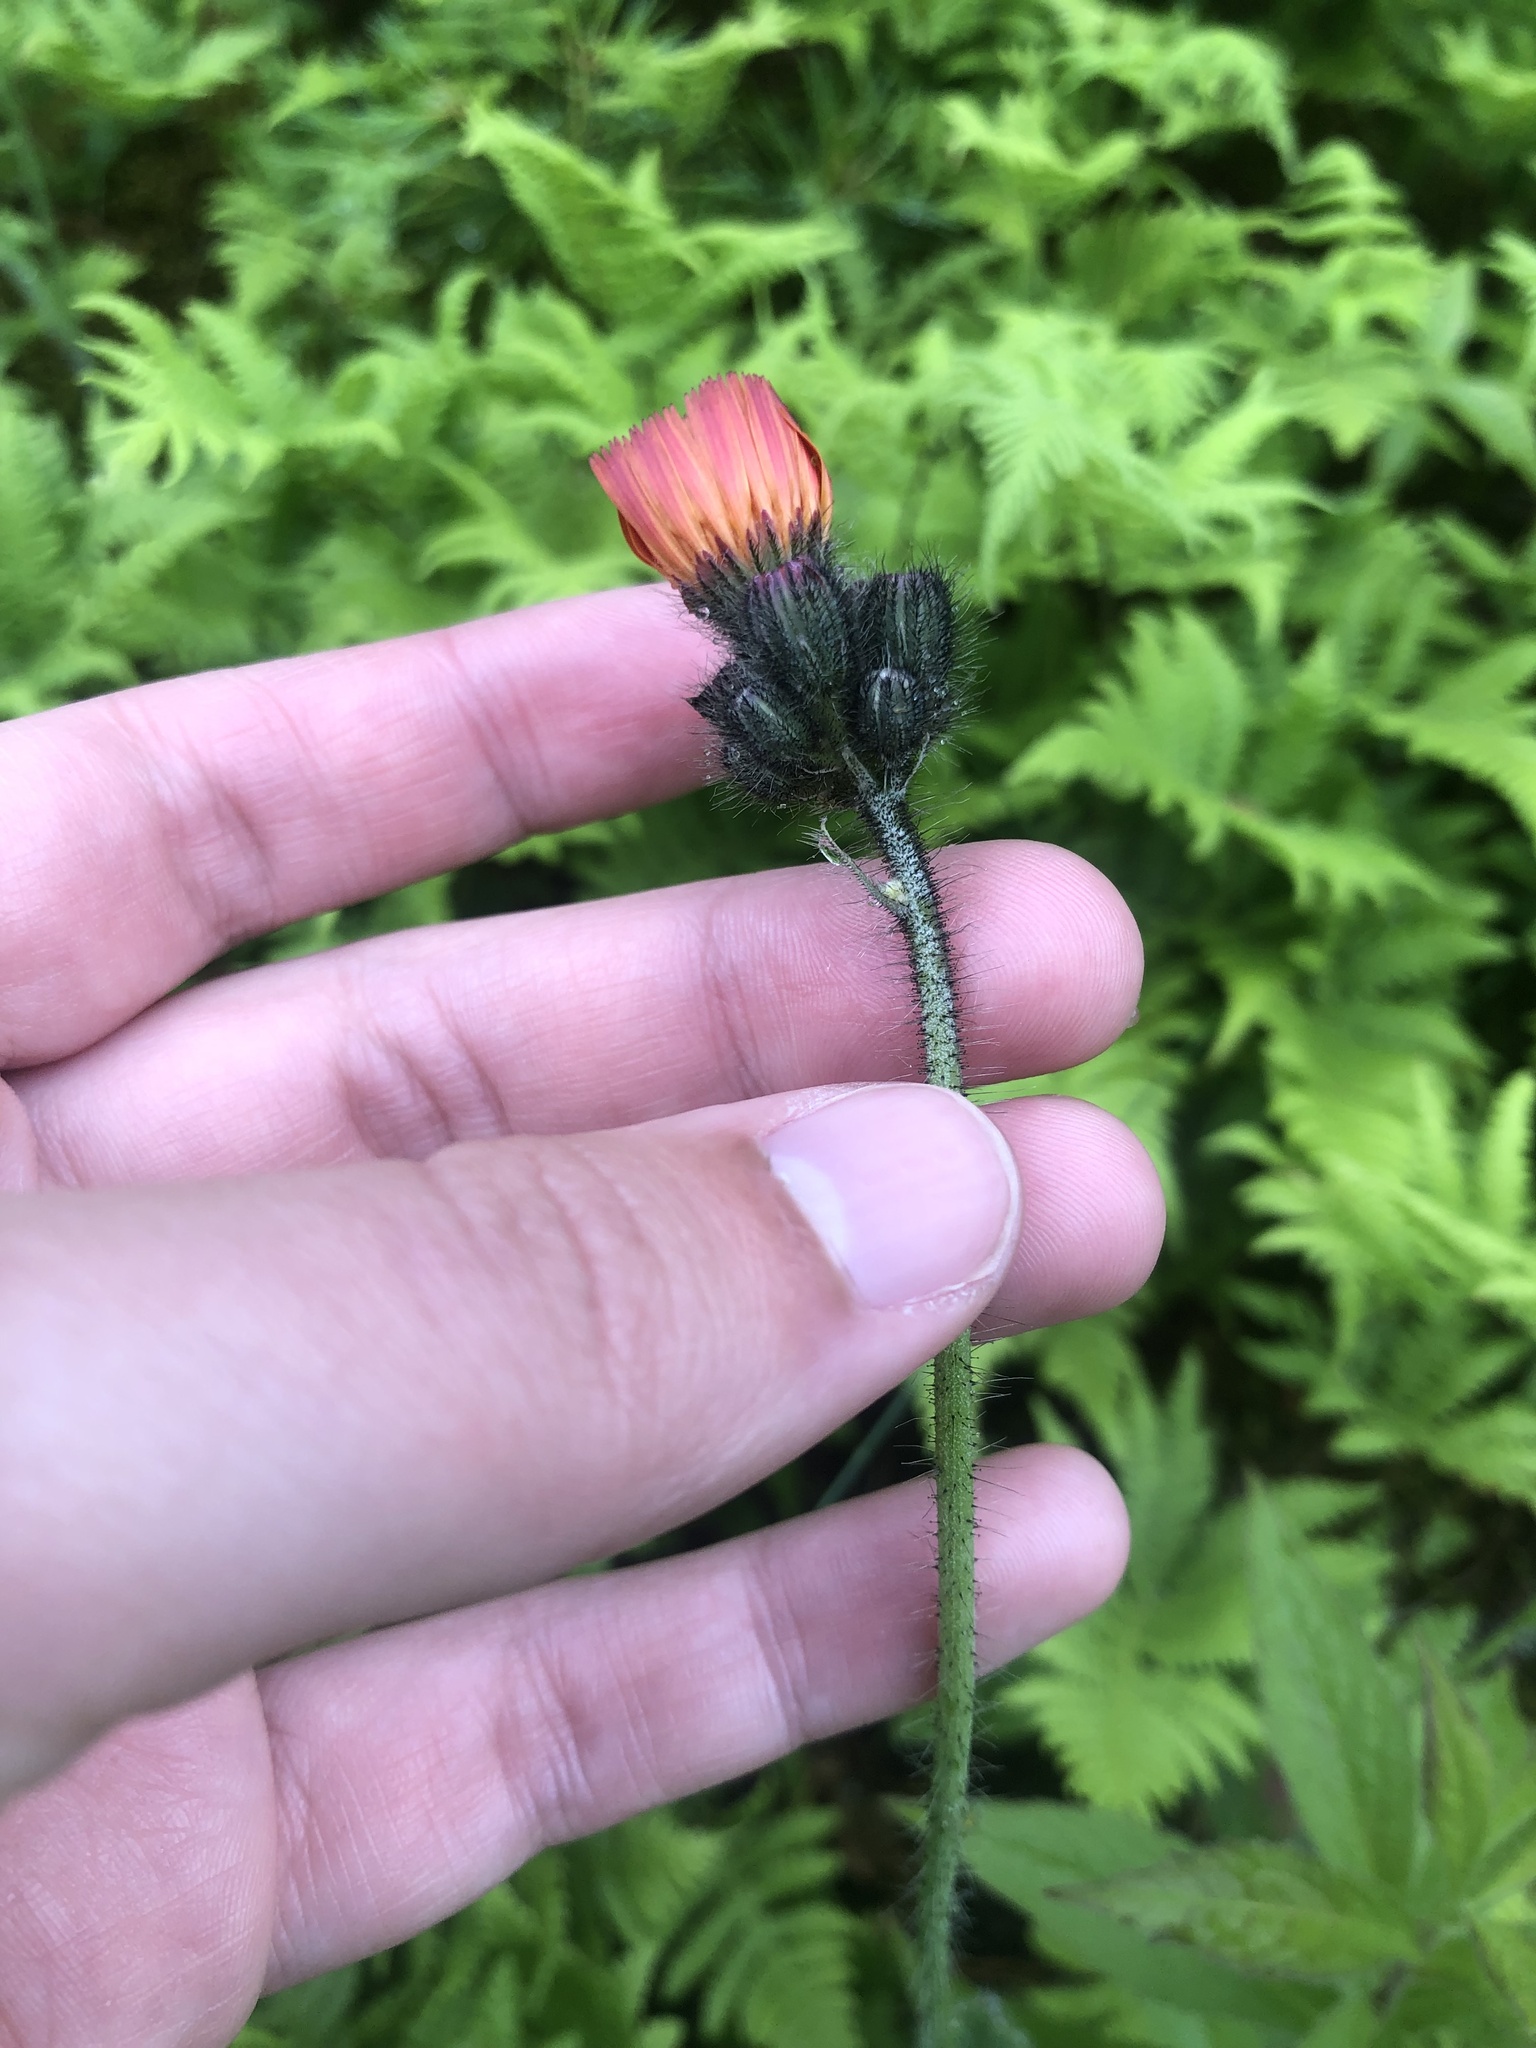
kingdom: Plantae
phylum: Tracheophyta
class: Magnoliopsida
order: Asterales
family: Asteraceae
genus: Pilosella
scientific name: Pilosella aurantiaca
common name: Fox-and-cubs
